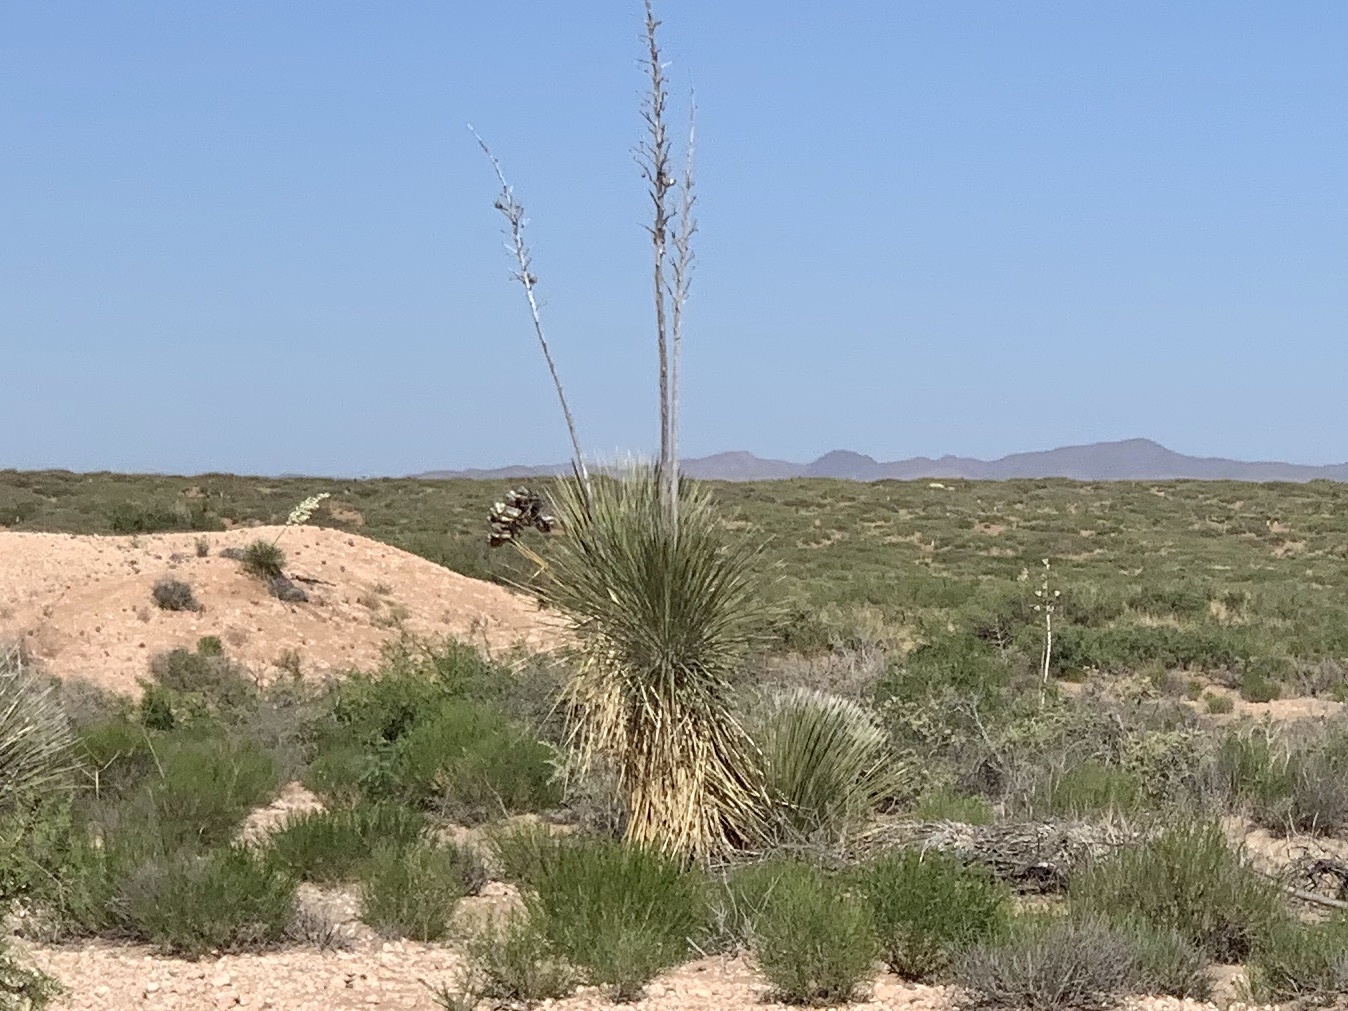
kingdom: Plantae
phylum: Tracheophyta
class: Liliopsida
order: Asparagales
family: Asparagaceae
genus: Yucca
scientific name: Yucca elata
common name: Palmella
